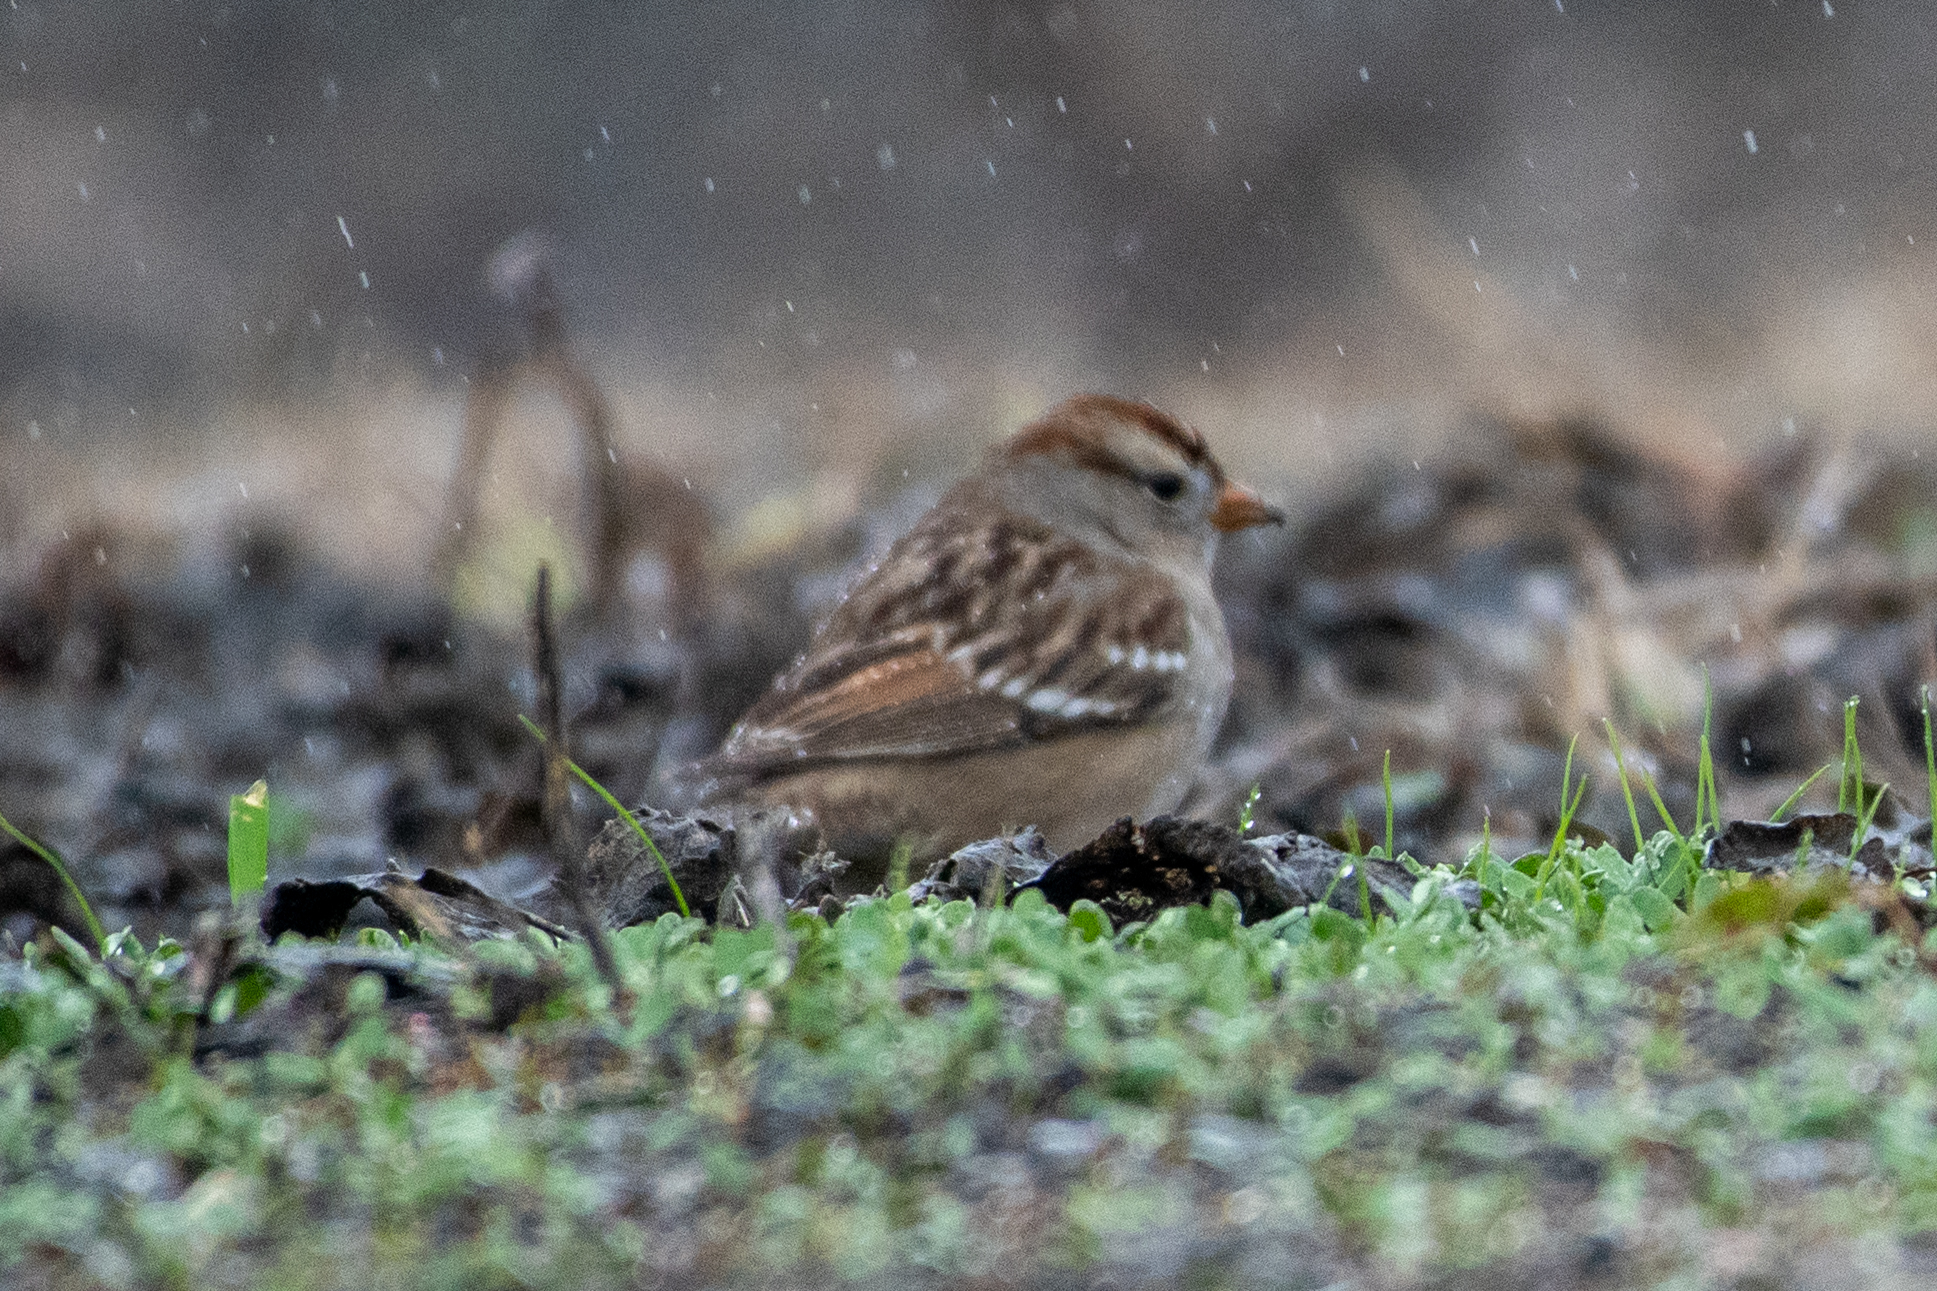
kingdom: Animalia
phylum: Chordata
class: Aves
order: Passeriformes
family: Passerellidae
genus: Zonotrichia
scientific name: Zonotrichia leucophrys
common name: White-crowned sparrow
